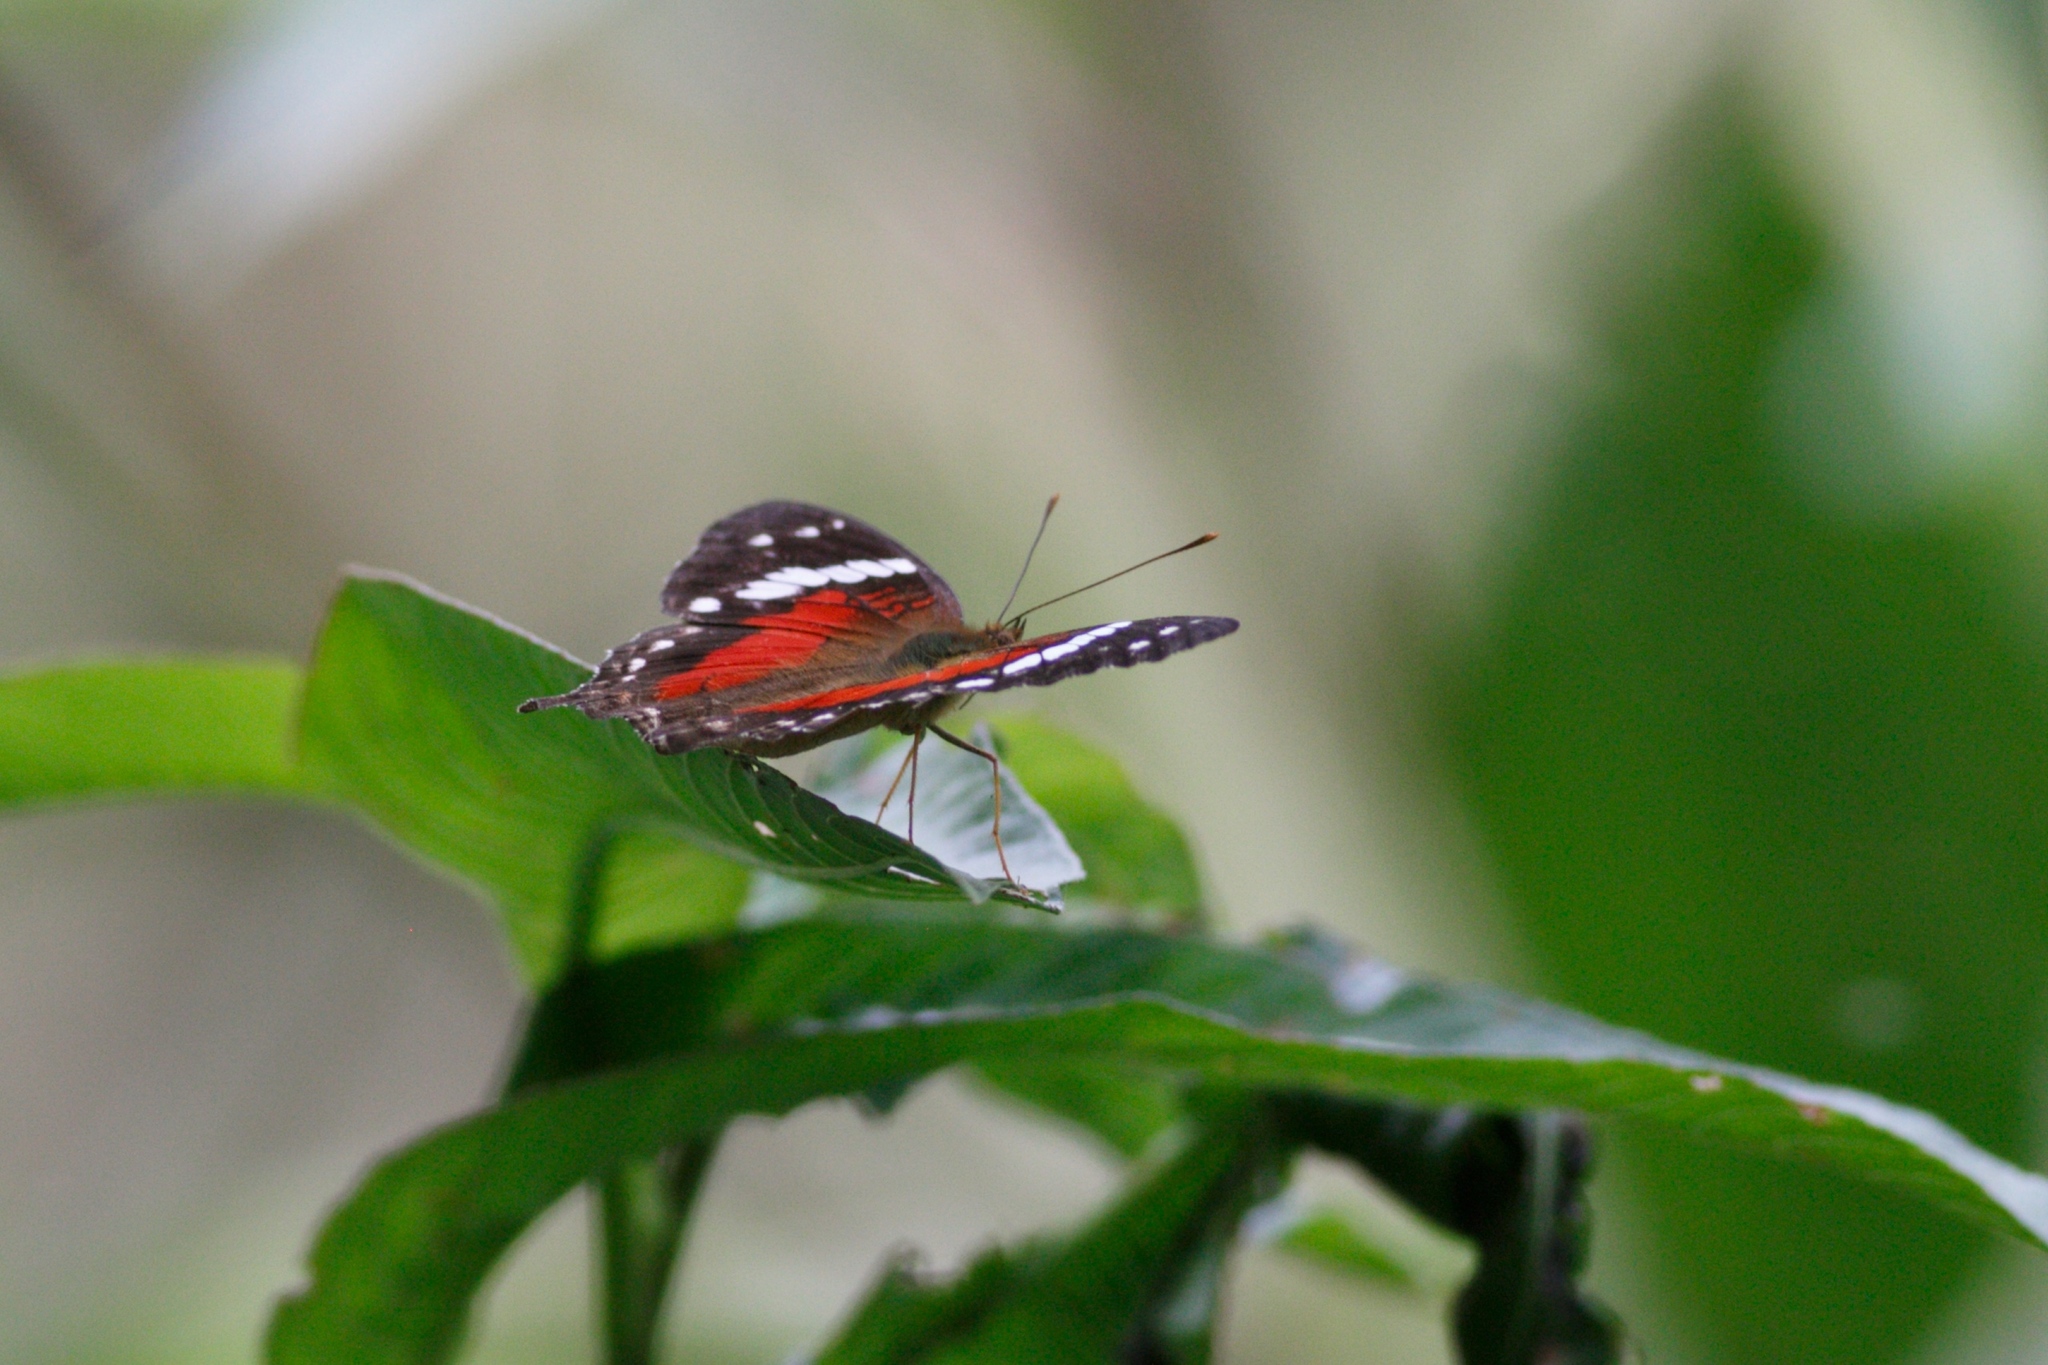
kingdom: Animalia
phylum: Arthropoda
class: Insecta
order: Lepidoptera
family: Nymphalidae
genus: Anartia
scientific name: Anartia amathea
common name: Red peacock
